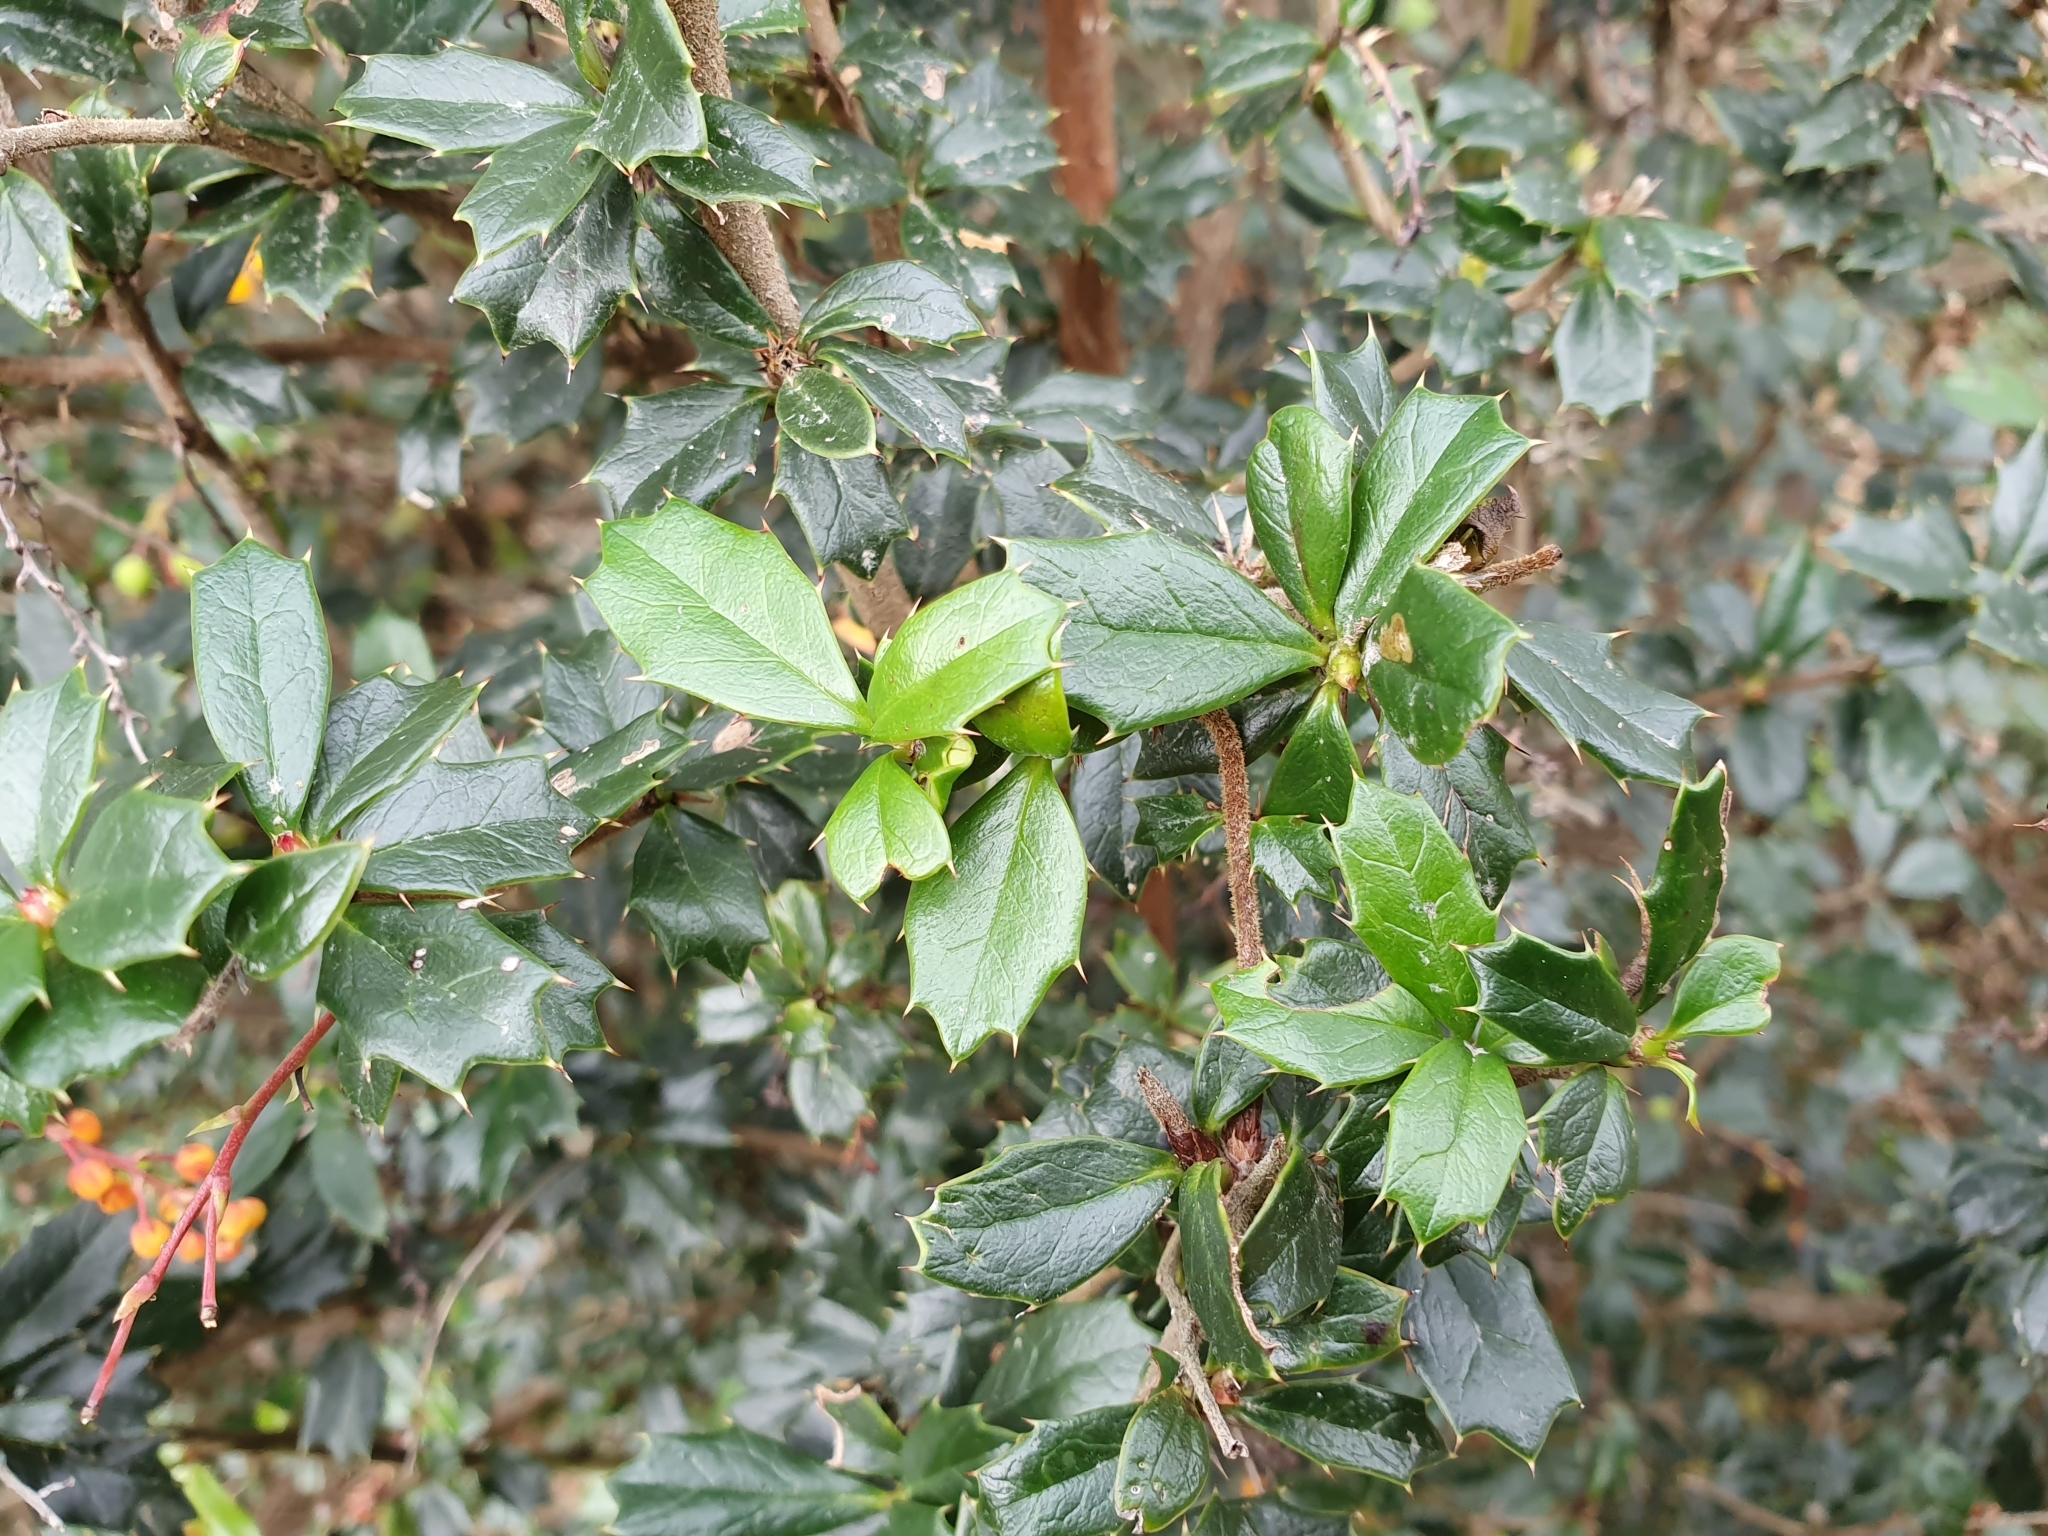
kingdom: Plantae
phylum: Tracheophyta
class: Magnoliopsida
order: Ranunculales
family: Berberidaceae
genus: Berberis
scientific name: Berberis darwinii
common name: Darwin's barberry
